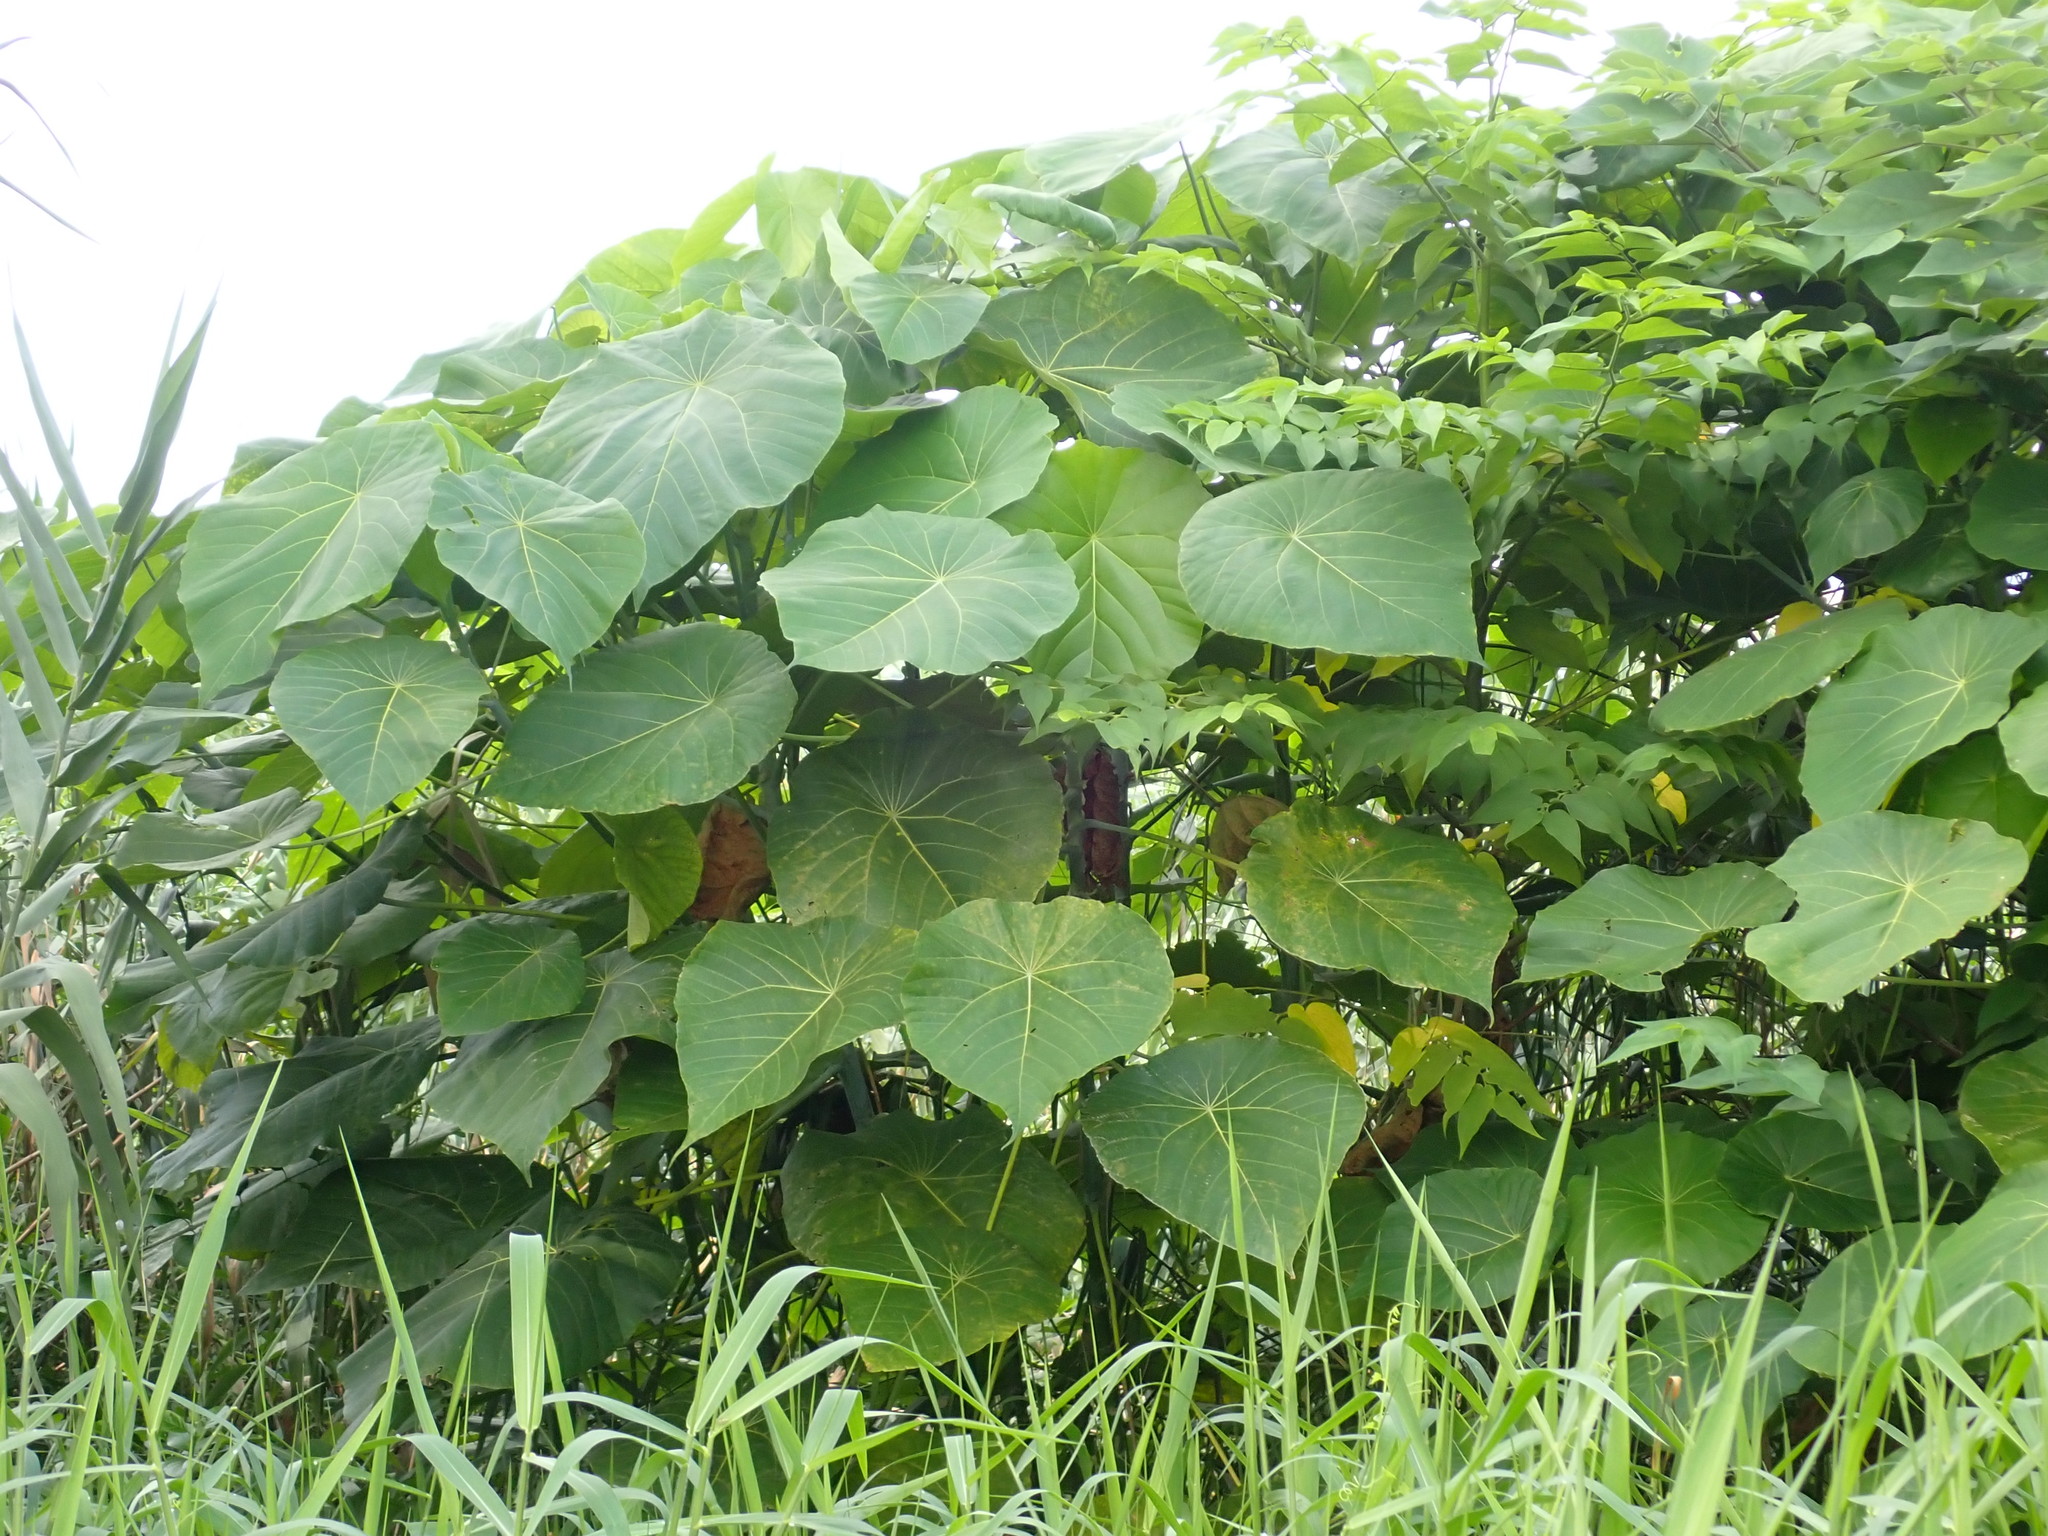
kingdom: Plantae
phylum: Tracheophyta
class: Magnoliopsida
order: Malpighiales
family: Euphorbiaceae
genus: Macaranga
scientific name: Macaranga tanarius
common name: Parasol leaf tree
